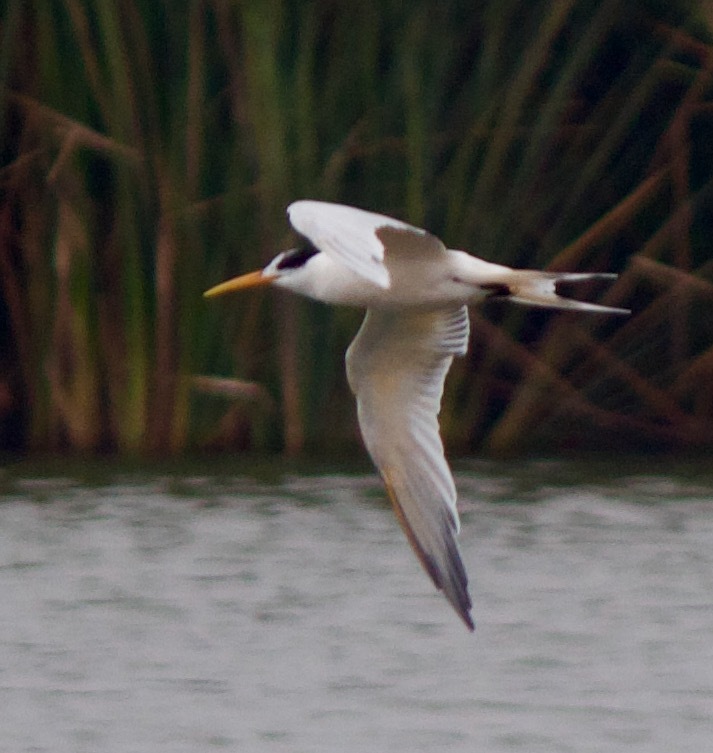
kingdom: Animalia
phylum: Chordata
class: Aves
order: Charadriiformes
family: Laridae
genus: Thalasseus
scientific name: Thalasseus elegans
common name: Elegant tern
